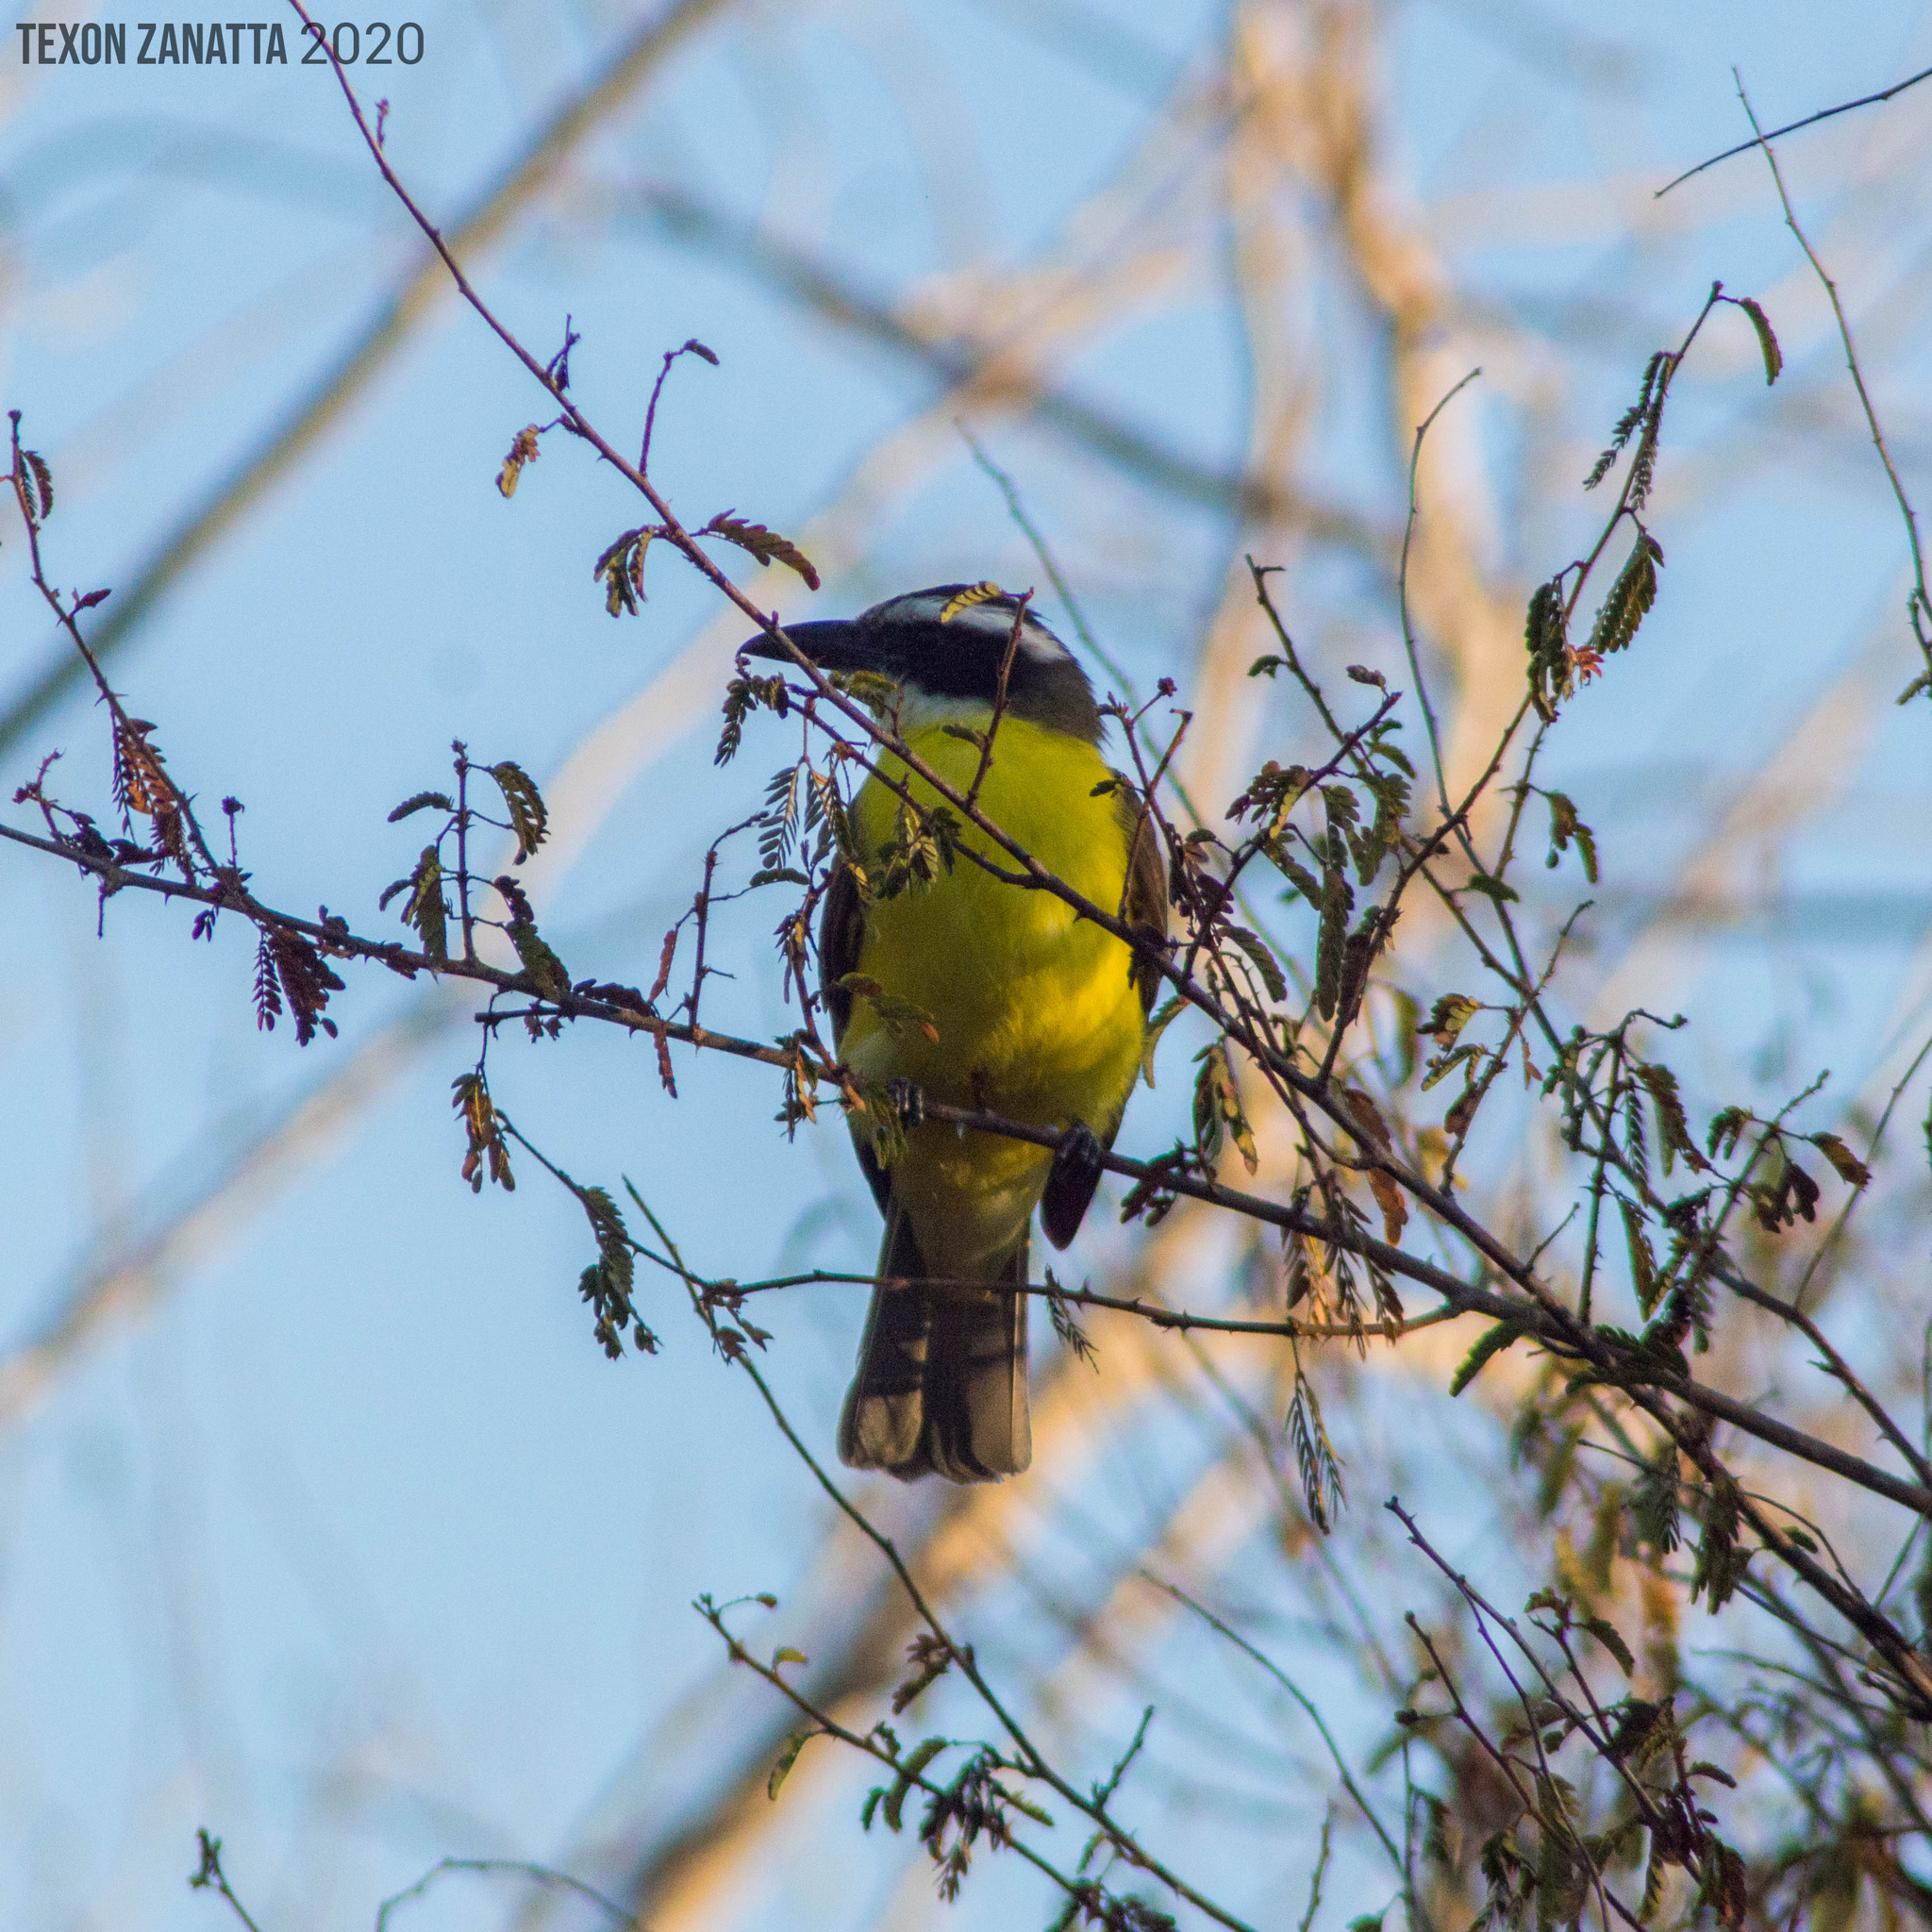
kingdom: Animalia
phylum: Chordata
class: Aves
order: Passeriformes
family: Tyrannidae
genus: Megarynchus
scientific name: Megarynchus pitangua
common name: Boat-billed flycatcher
